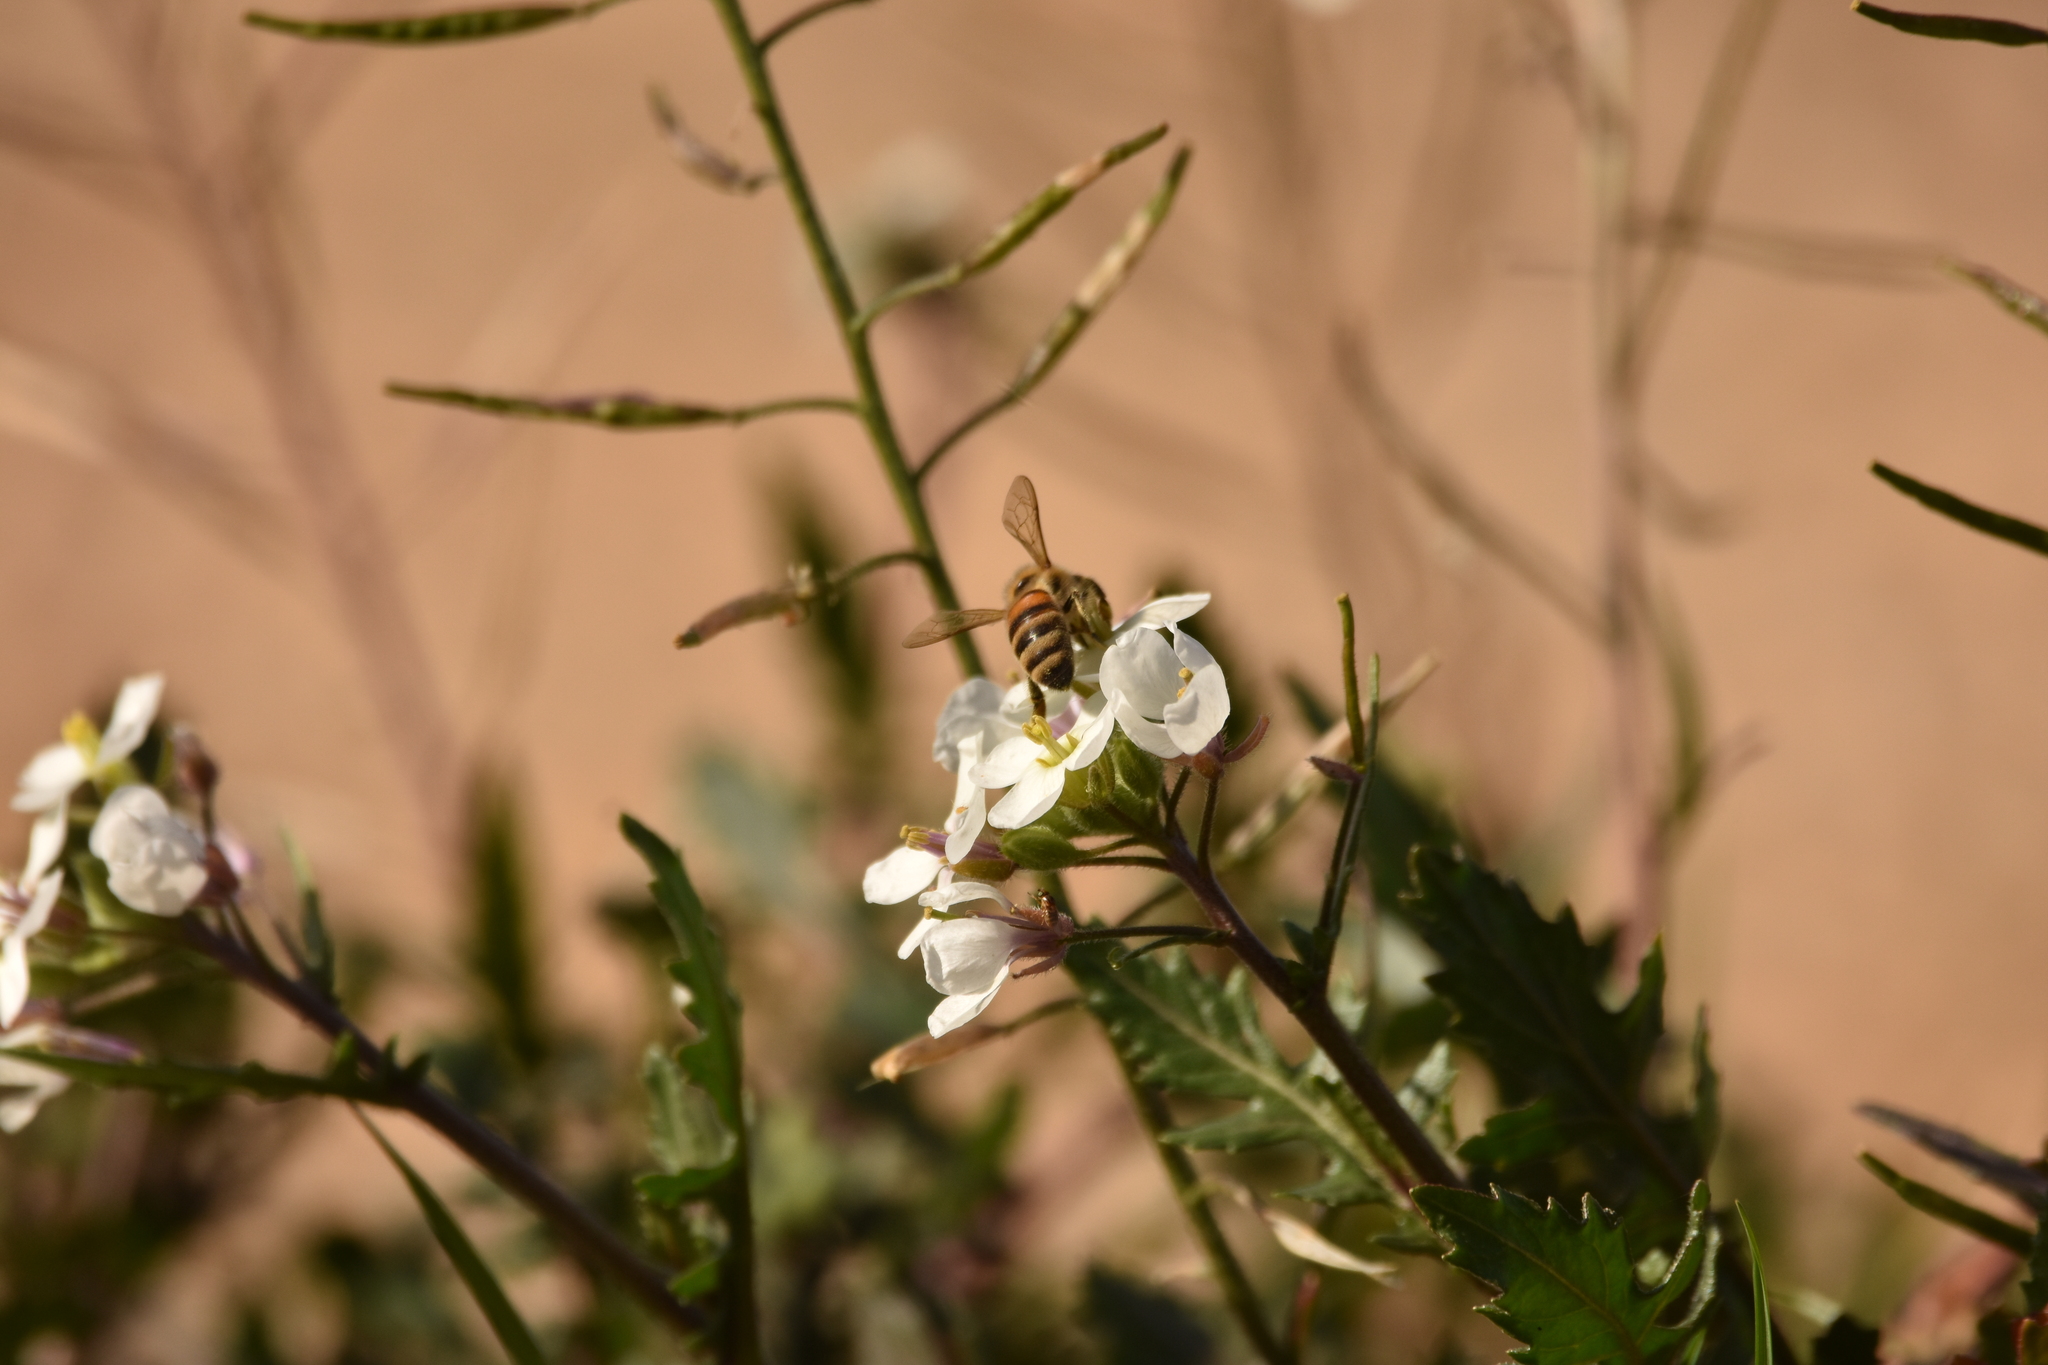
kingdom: Animalia
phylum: Arthropoda
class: Insecta
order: Hymenoptera
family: Apidae
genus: Apis
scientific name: Apis mellifera
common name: Honey bee
